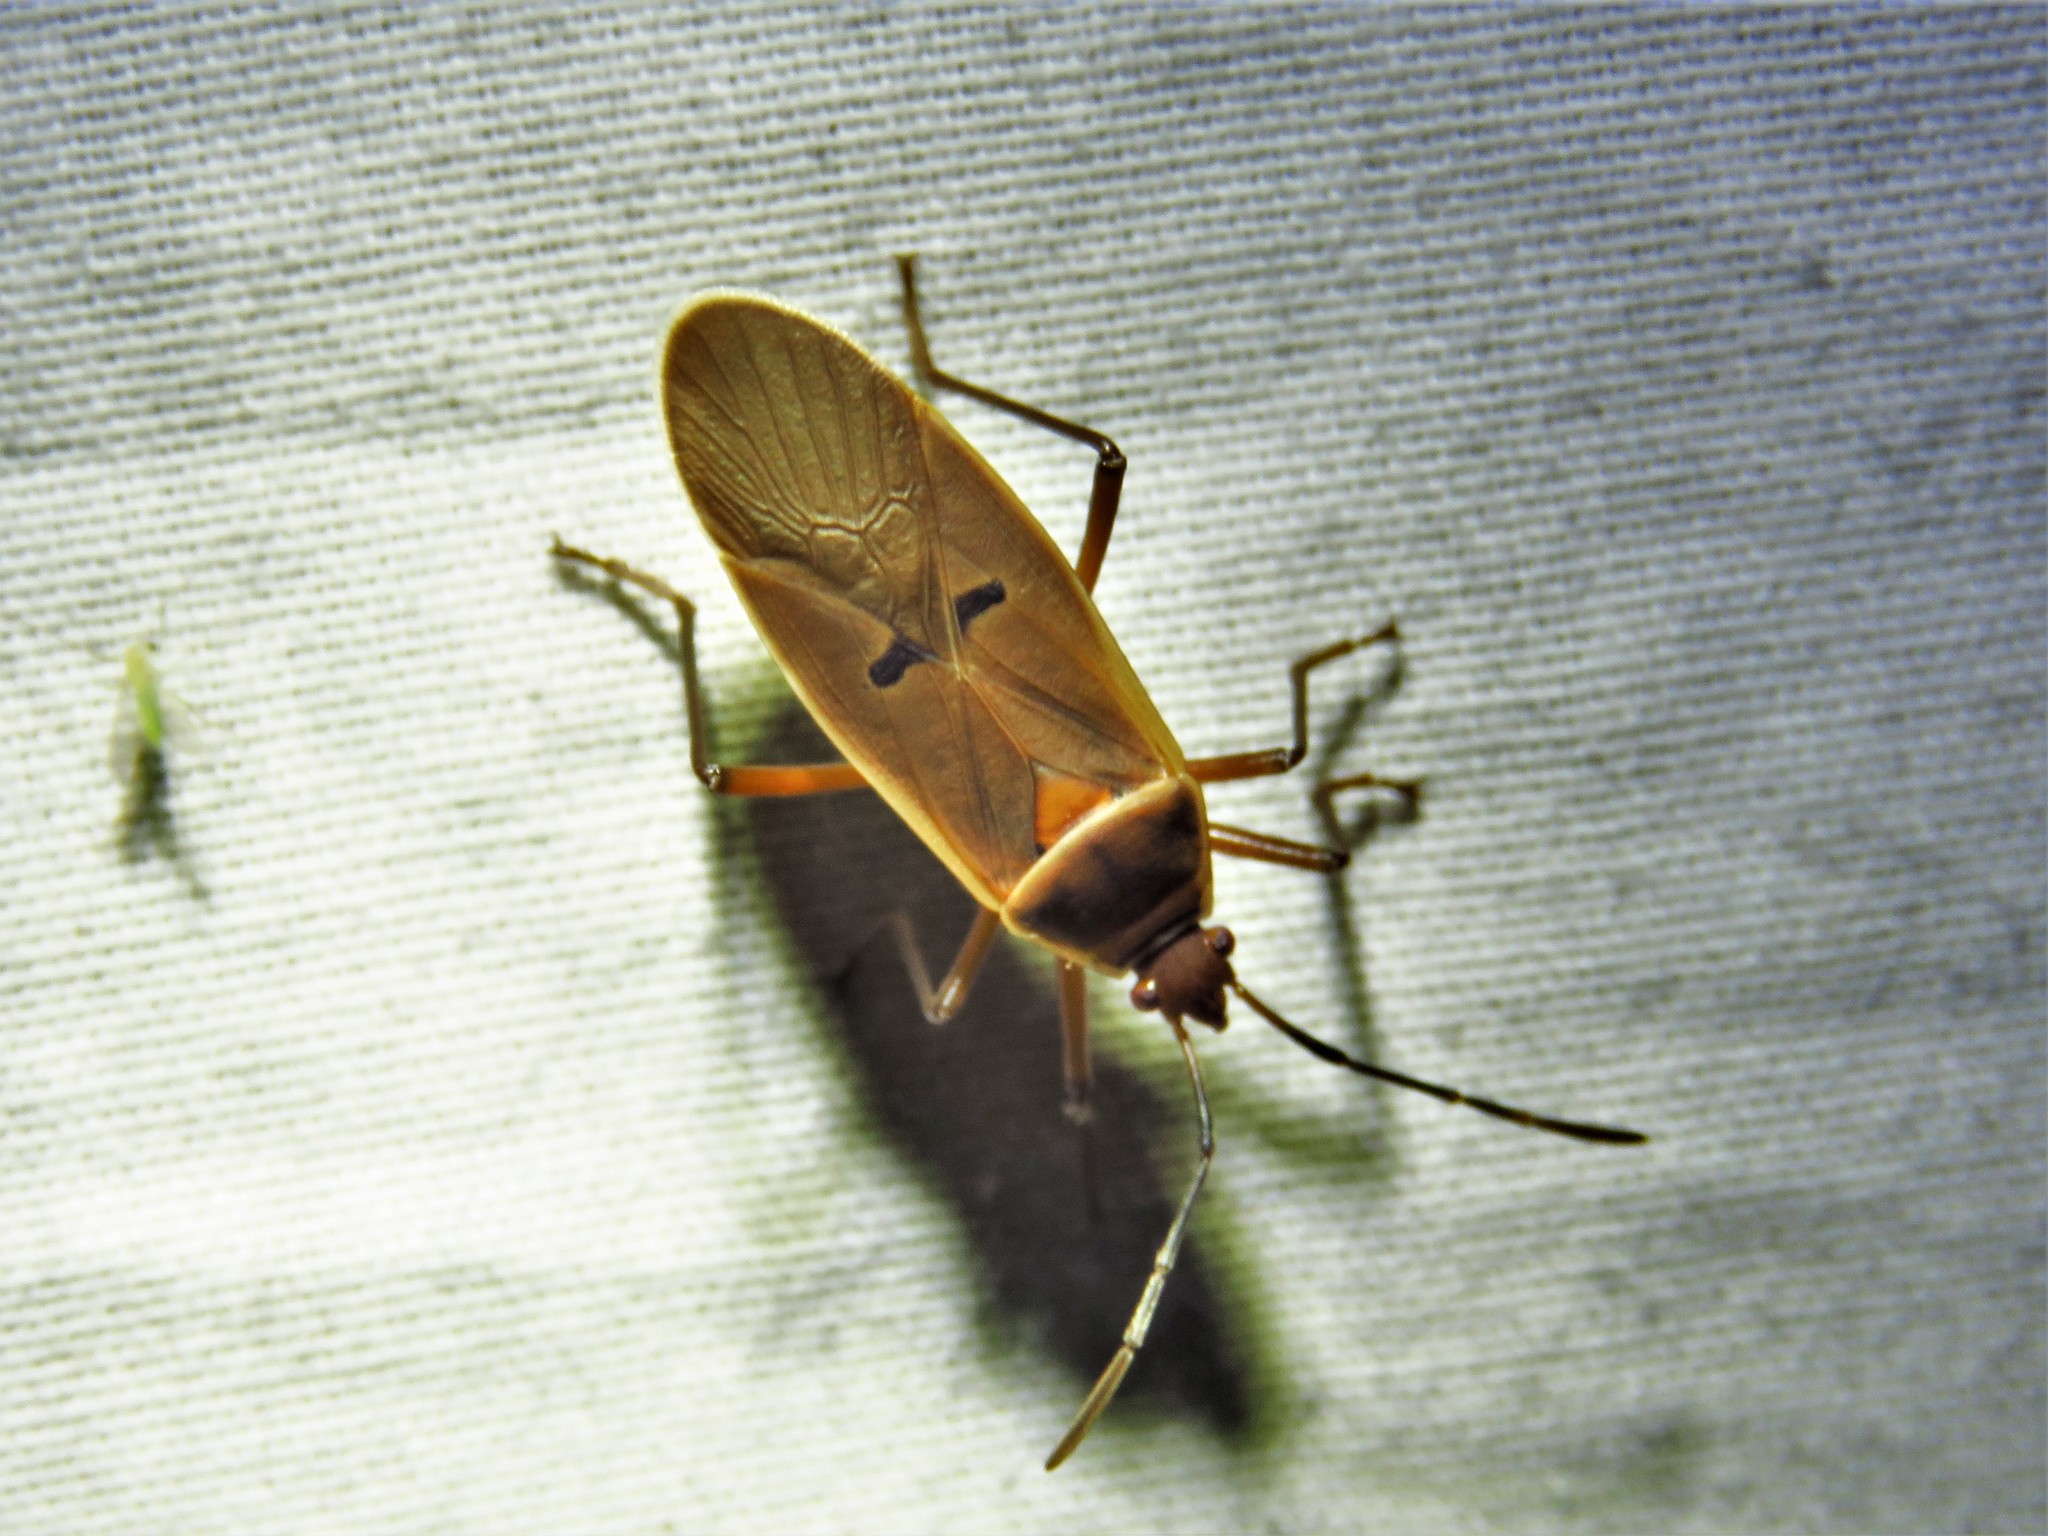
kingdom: Animalia
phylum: Arthropoda
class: Insecta
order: Hemiptera
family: Pyrrhocoridae
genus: Dysdercus
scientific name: Dysdercus bimaculatus
